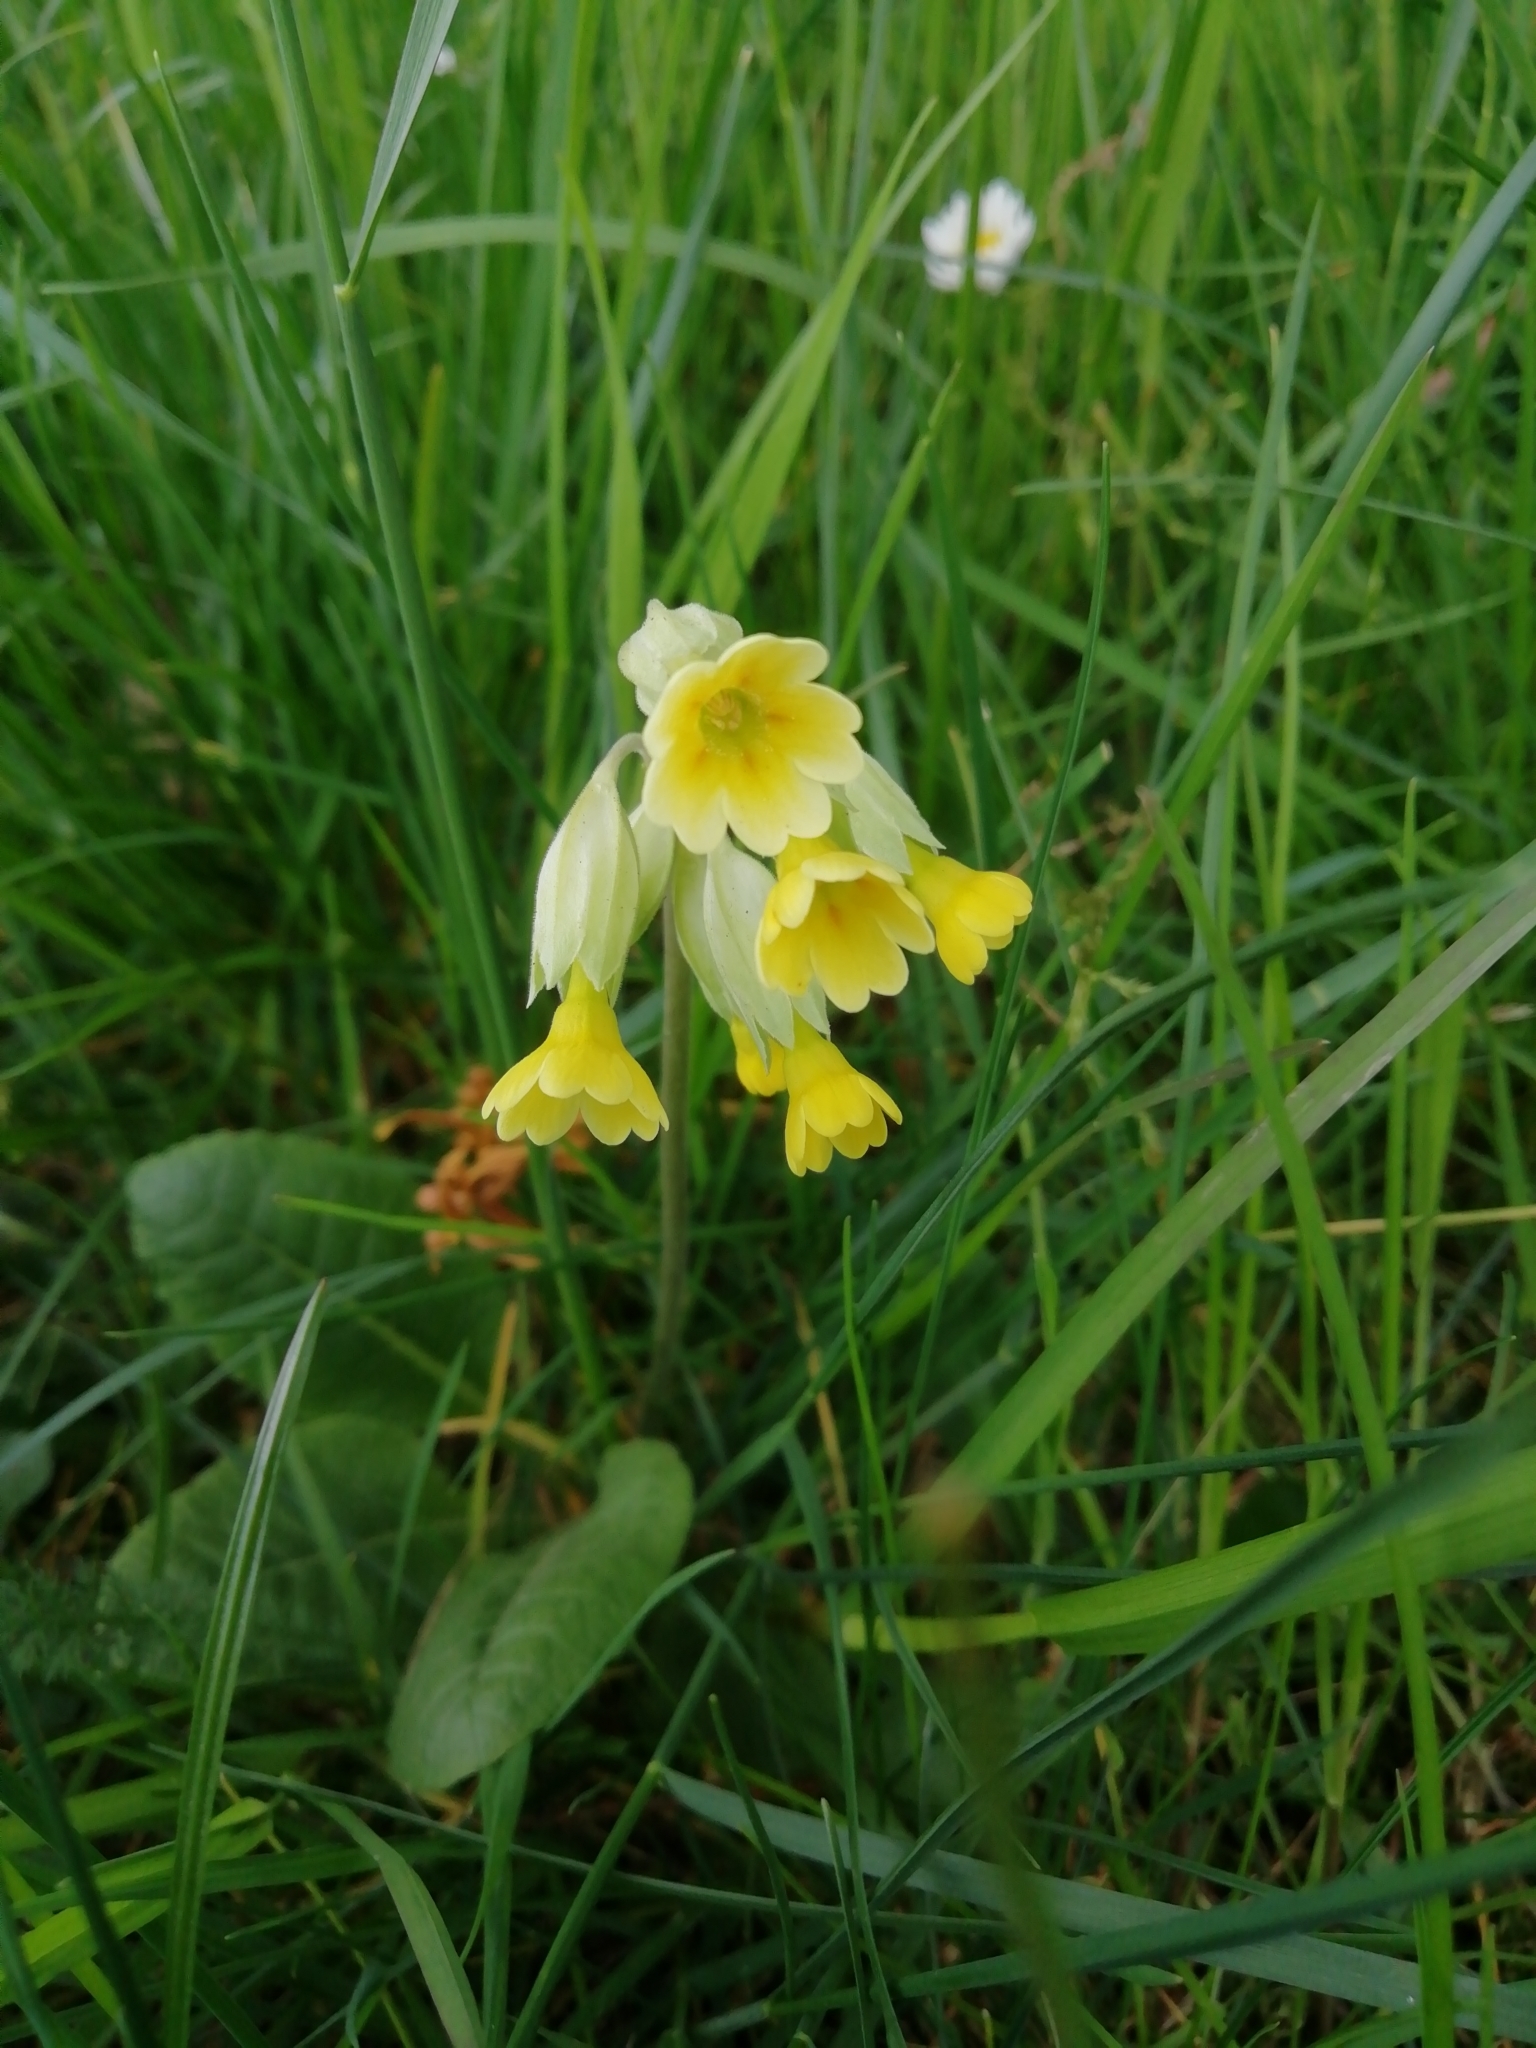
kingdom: Plantae
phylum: Tracheophyta
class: Magnoliopsida
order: Ericales
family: Primulaceae
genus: Primula
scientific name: Primula veris
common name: Cowslip
